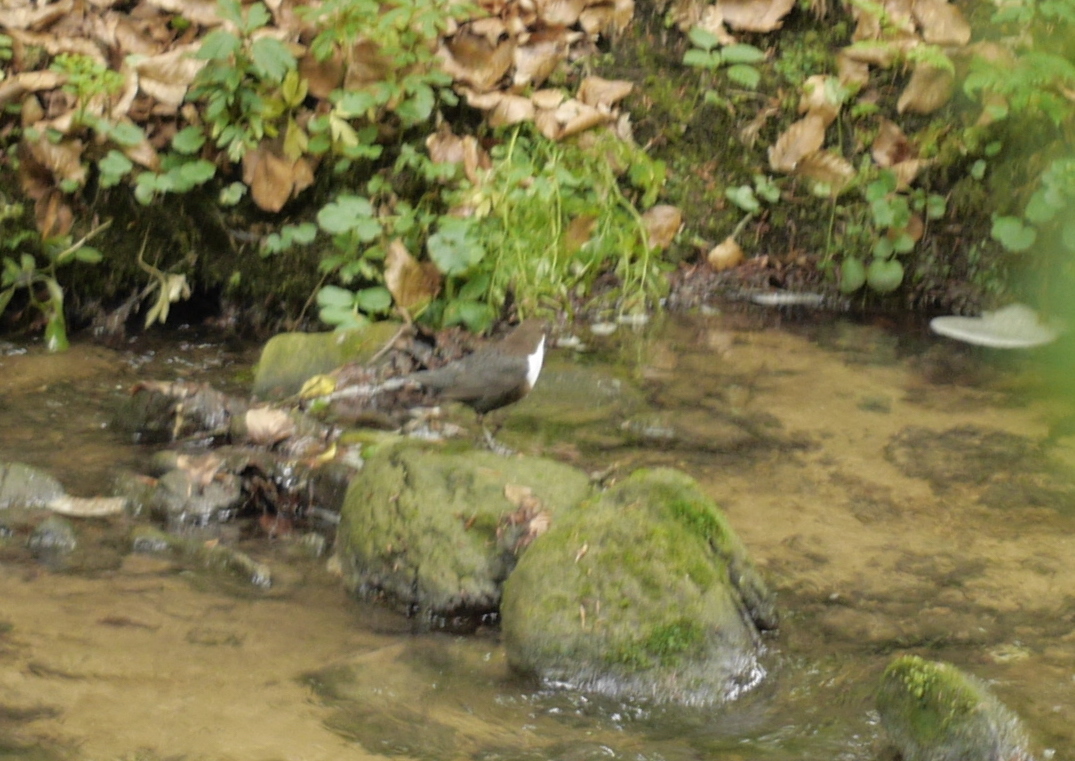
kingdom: Animalia
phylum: Chordata
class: Aves
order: Passeriformes
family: Cinclidae
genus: Cinclus
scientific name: Cinclus cinclus
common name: White-throated dipper
